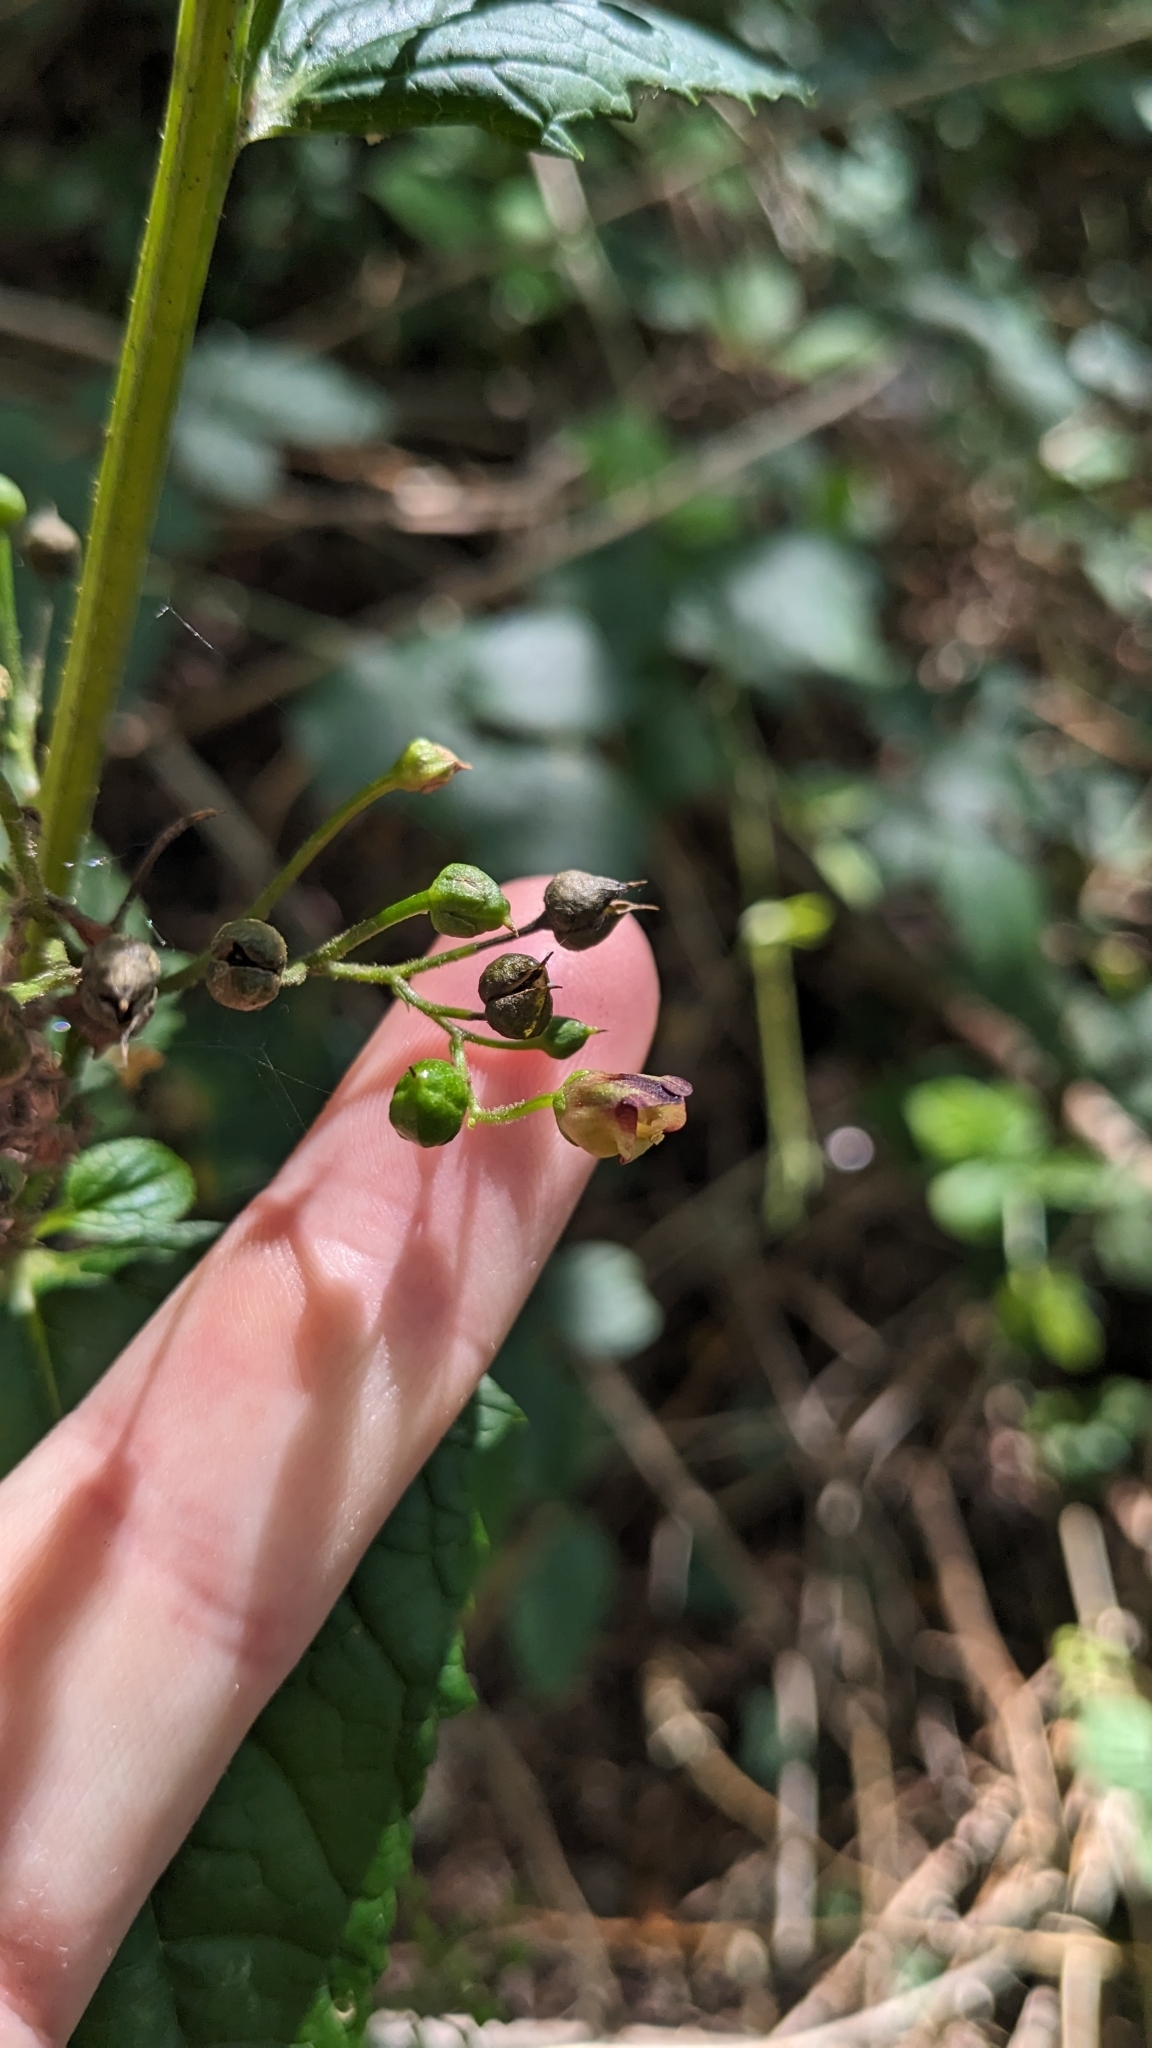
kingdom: Plantae
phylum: Tracheophyta
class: Magnoliopsida
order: Lamiales
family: Scrophulariaceae
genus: Scrophularia
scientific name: Scrophularia nodosa
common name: Common figwort
